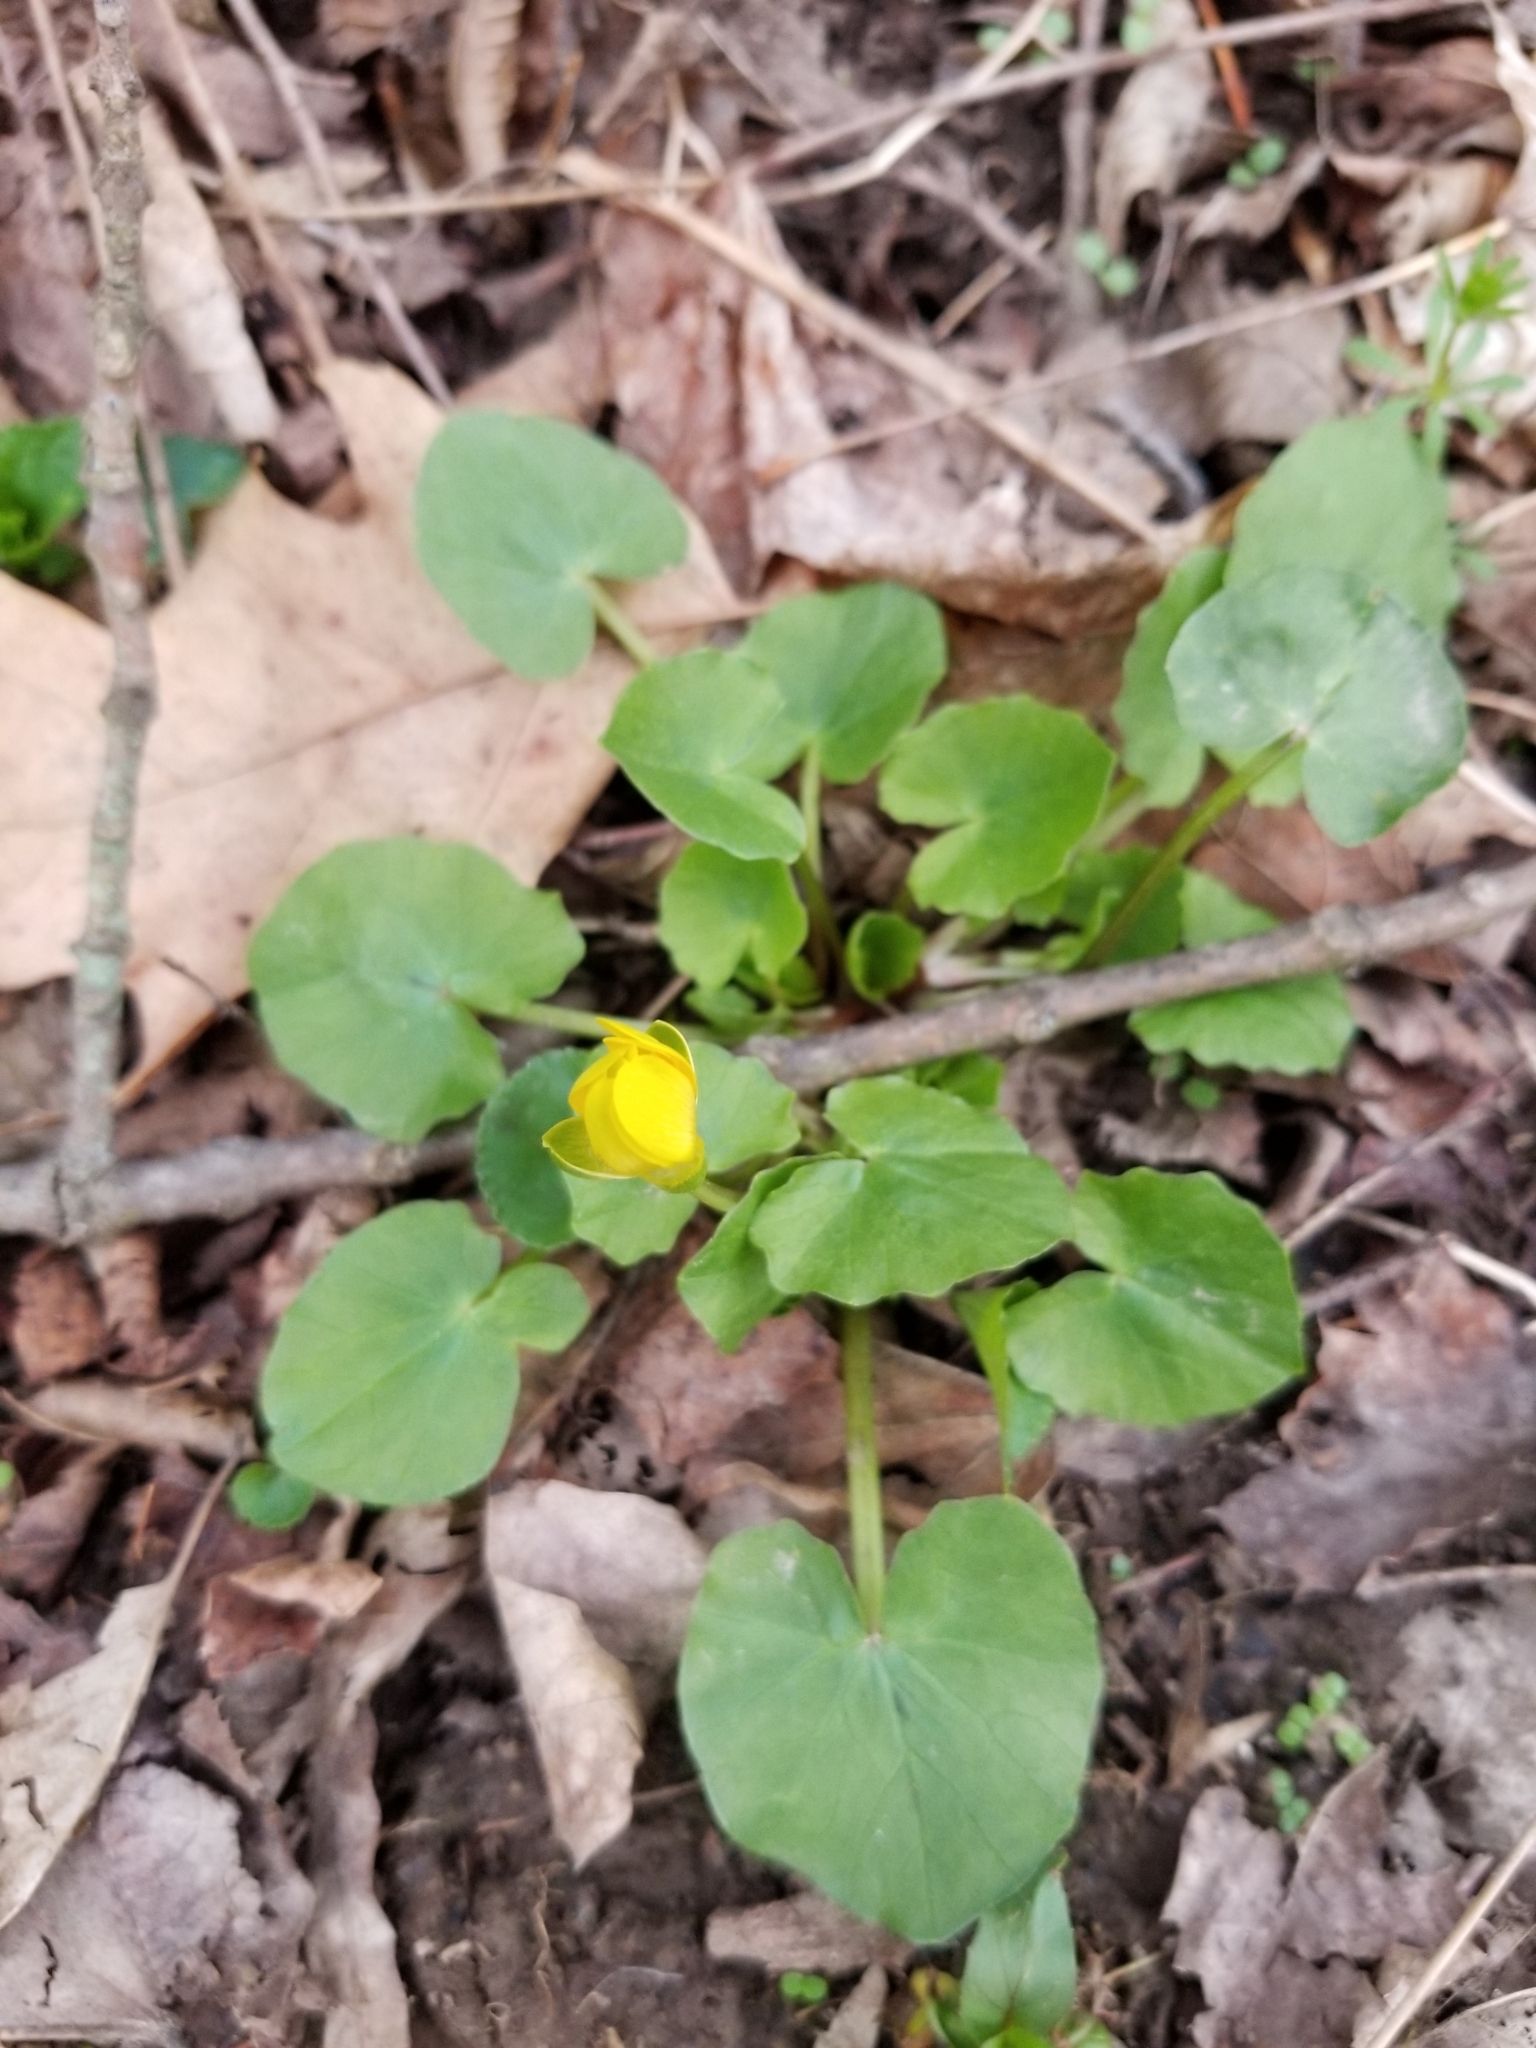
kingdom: Plantae
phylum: Tracheophyta
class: Magnoliopsida
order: Ranunculales
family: Ranunculaceae
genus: Ficaria
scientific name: Ficaria verna
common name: Lesser celandine
